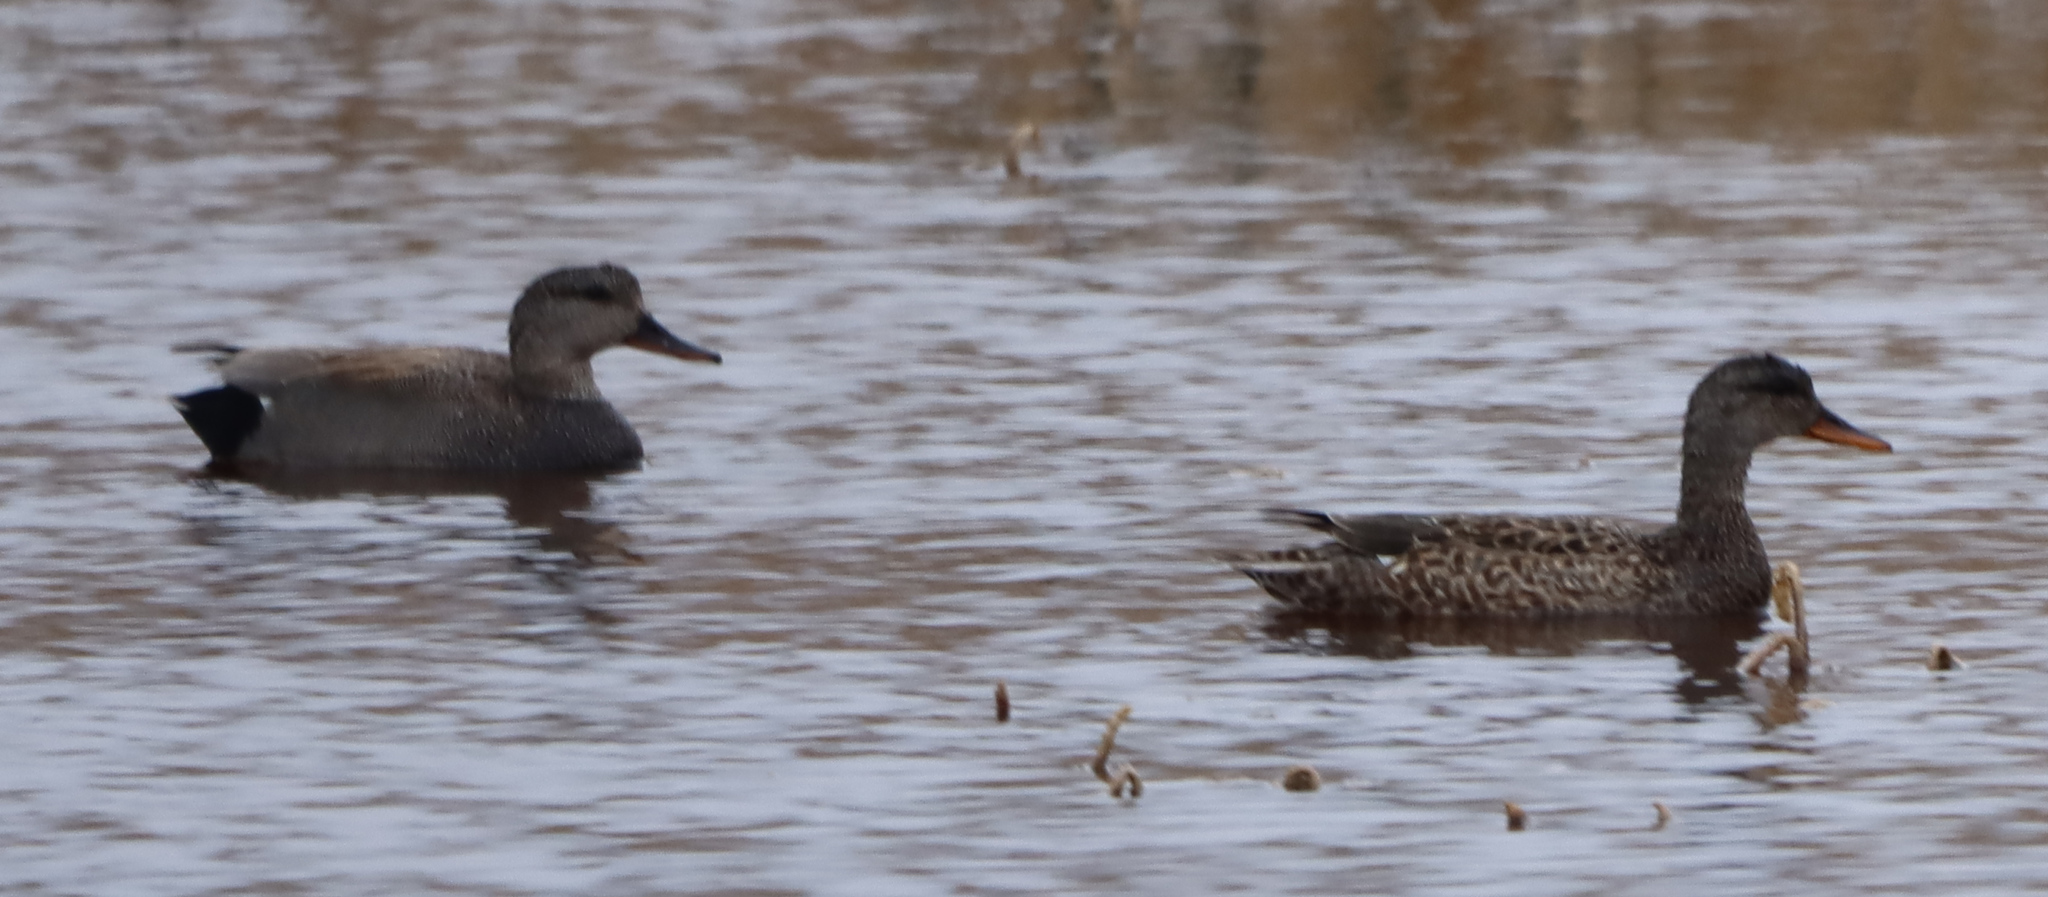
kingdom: Animalia
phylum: Chordata
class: Aves
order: Anseriformes
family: Anatidae
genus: Mareca
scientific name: Mareca strepera
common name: Gadwall
